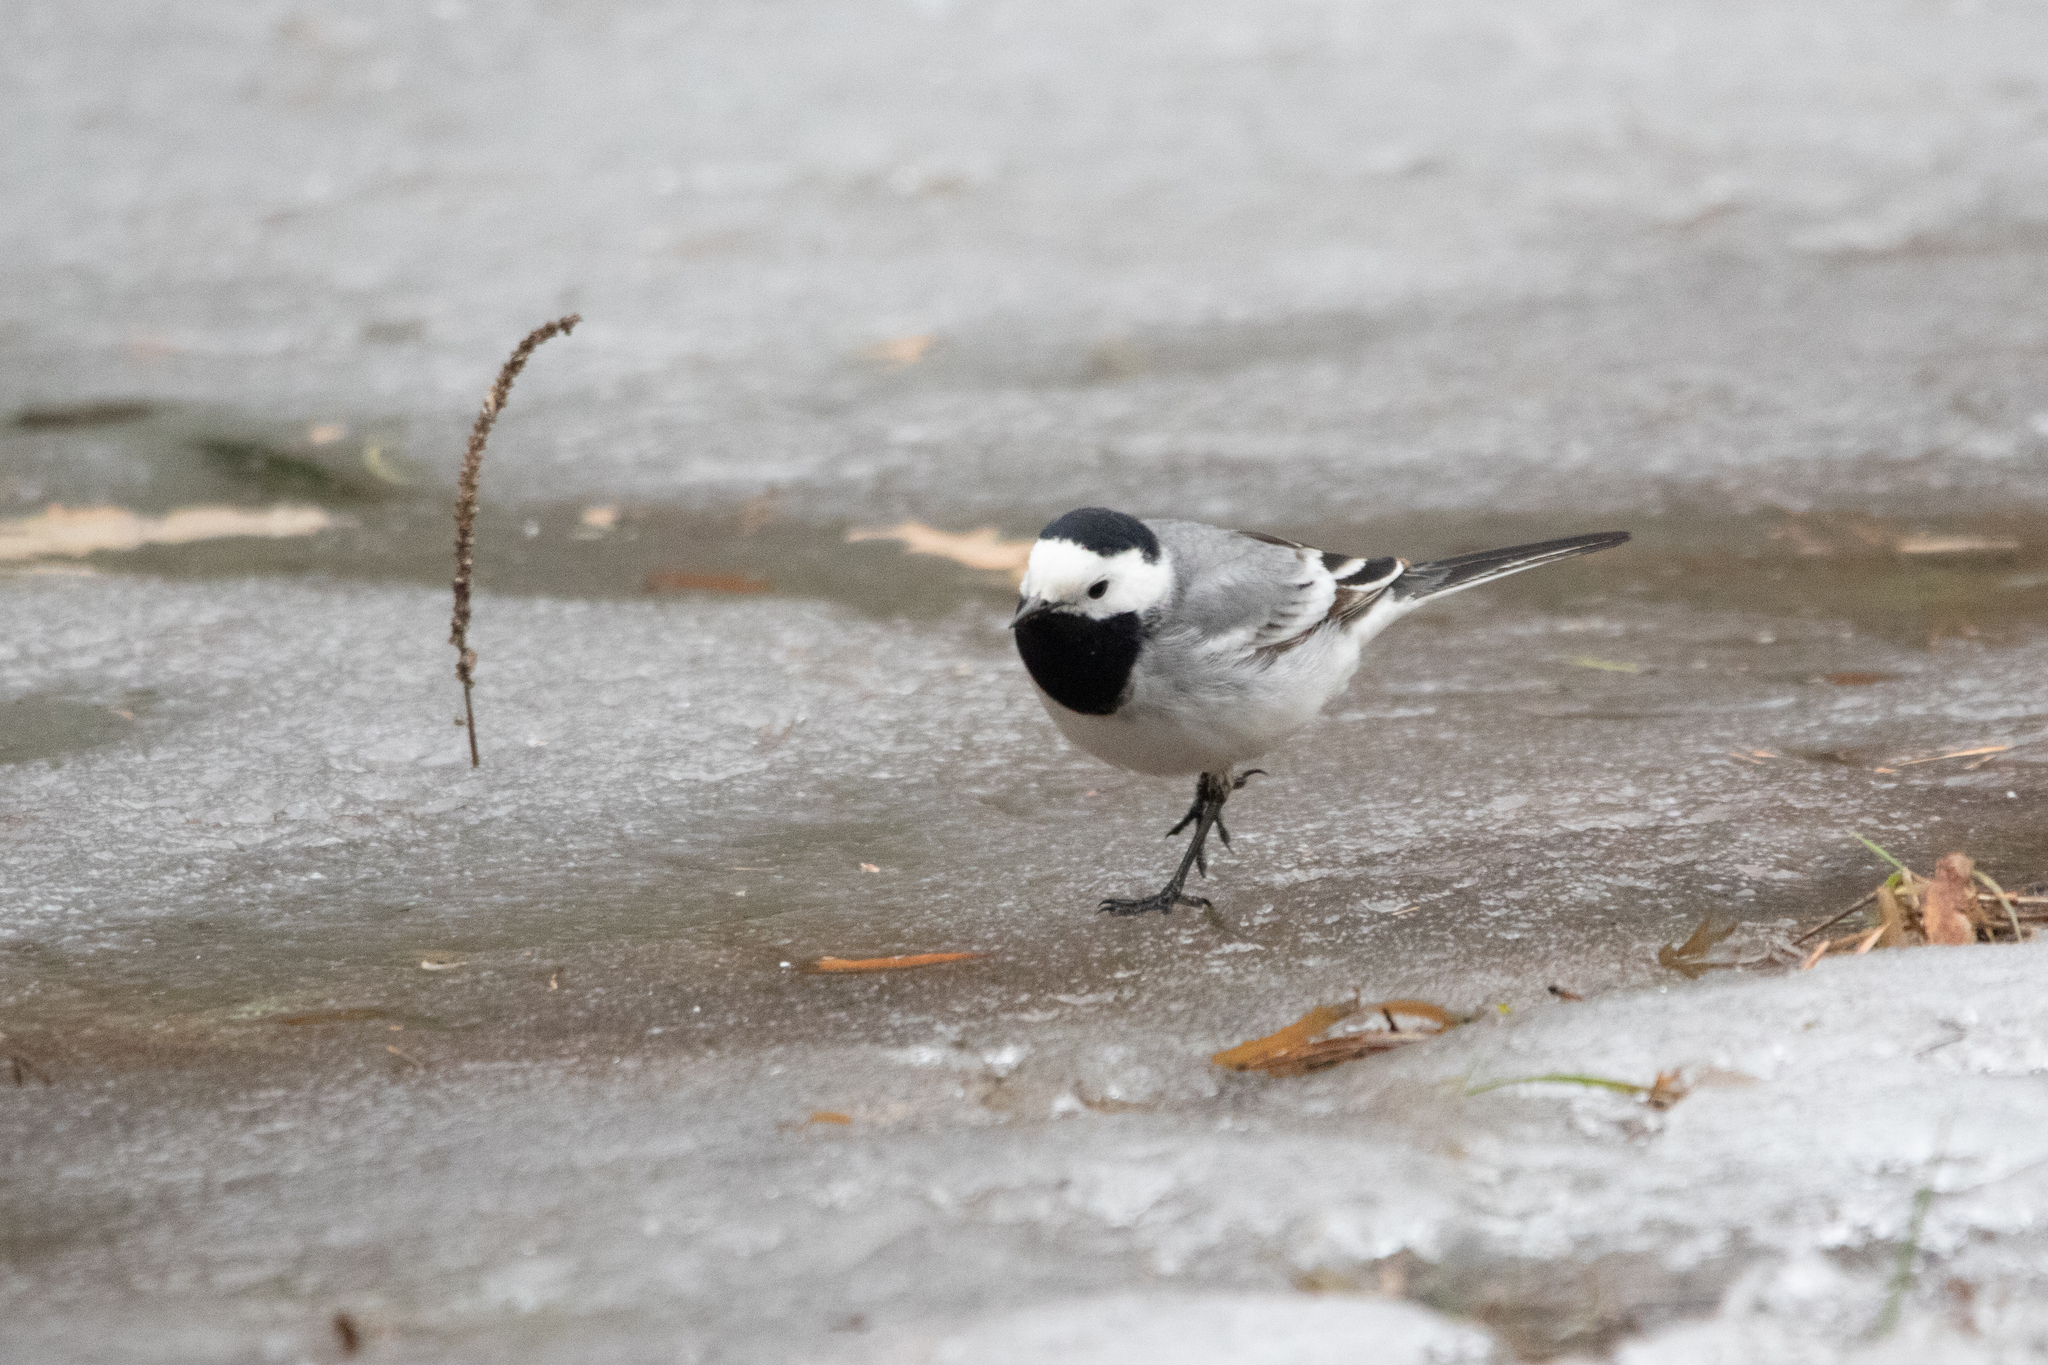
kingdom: Animalia
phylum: Chordata
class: Aves
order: Passeriformes
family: Motacillidae
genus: Motacilla
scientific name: Motacilla alba
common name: White wagtail
